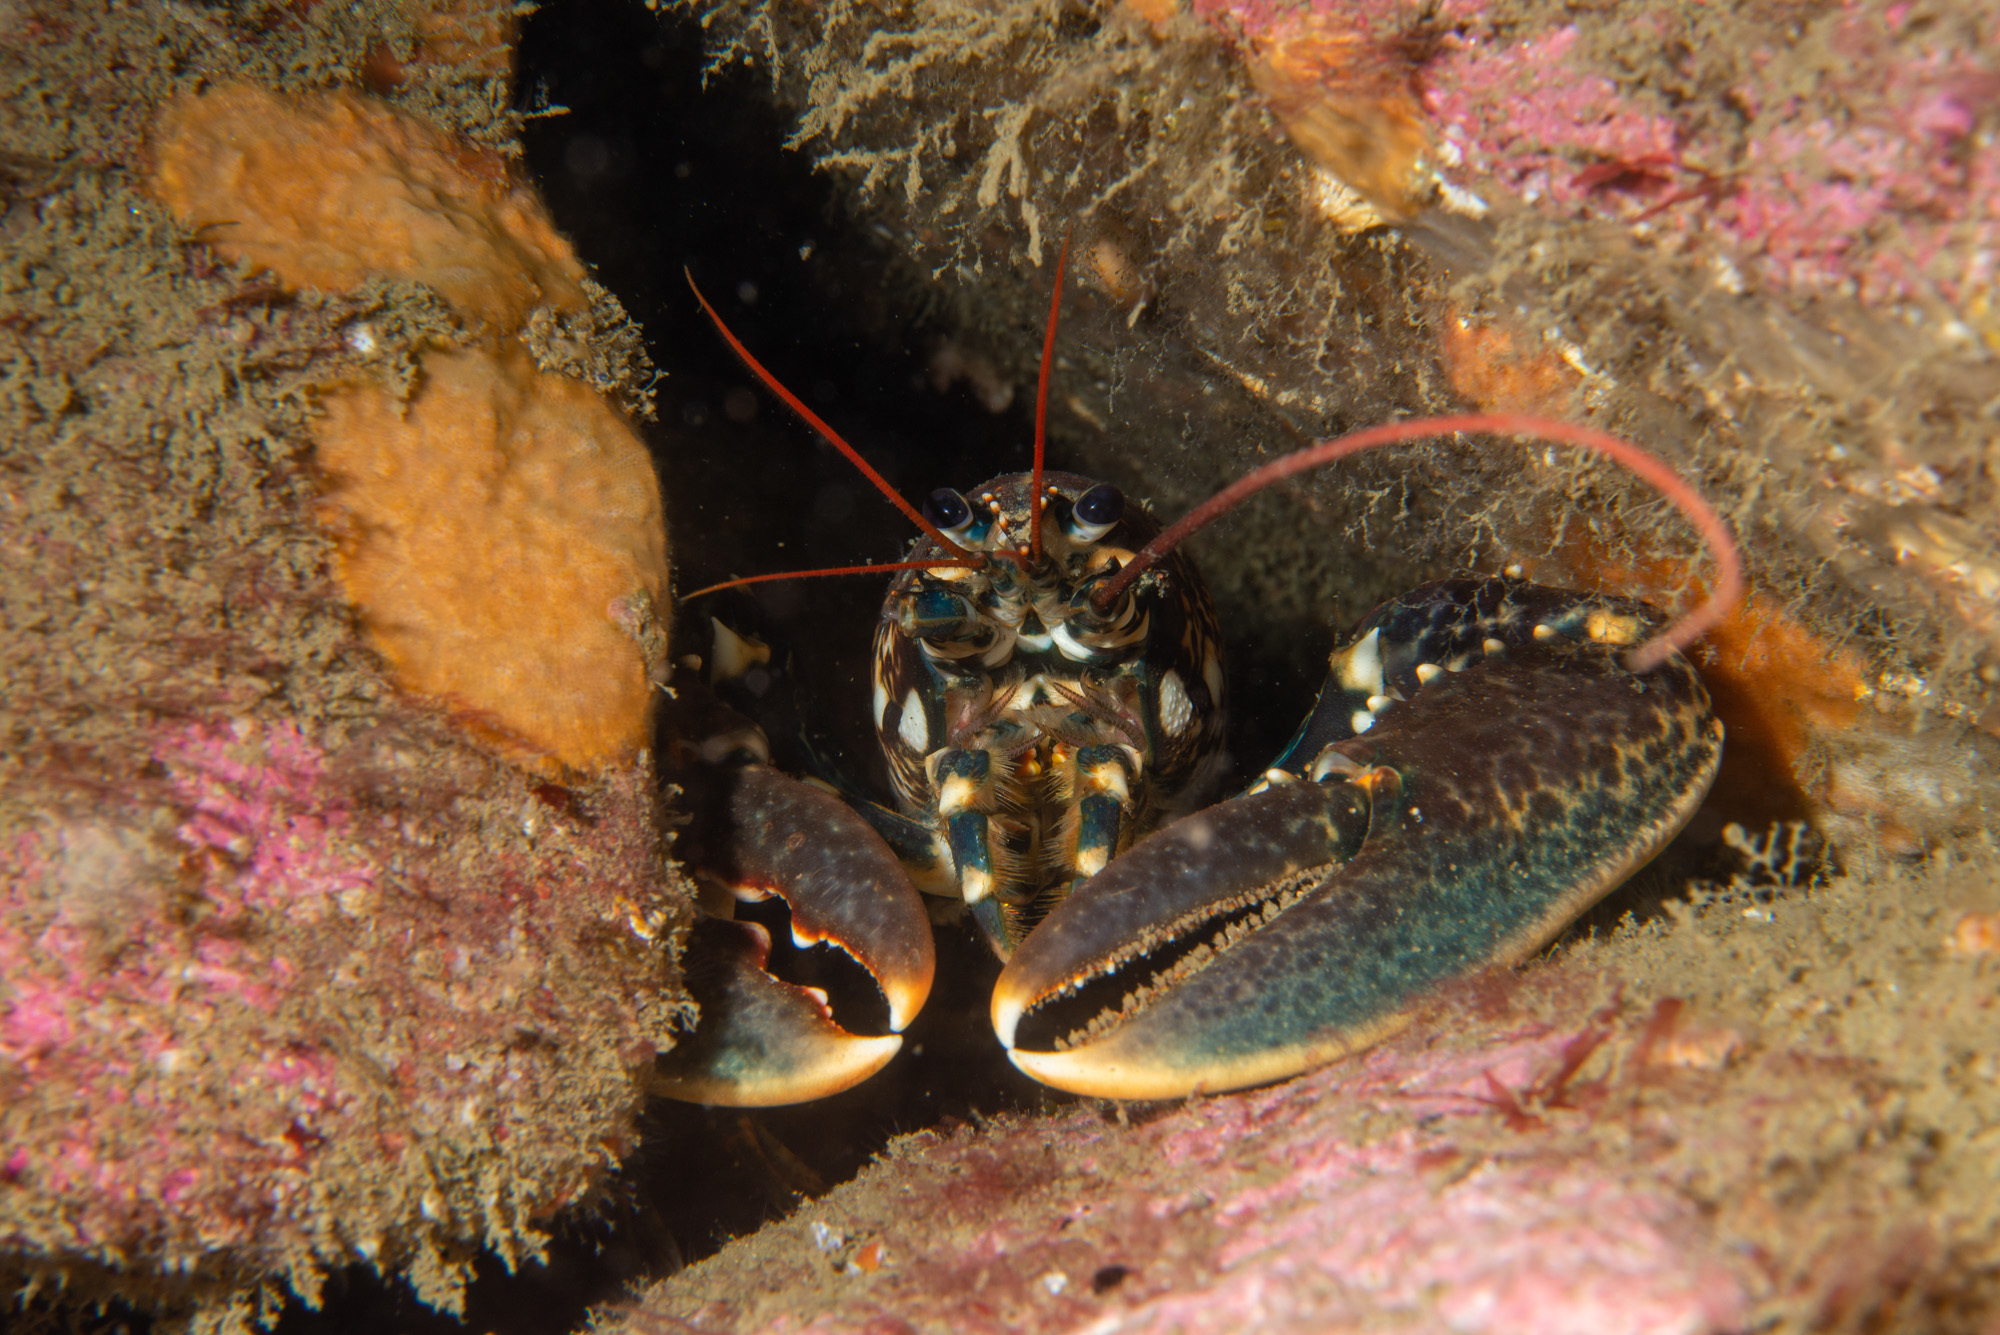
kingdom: Animalia
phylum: Arthropoda
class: Malacostraca
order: Decapoda
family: Nephropidae
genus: Homarus
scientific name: Homarus gammarus
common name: European lobster
